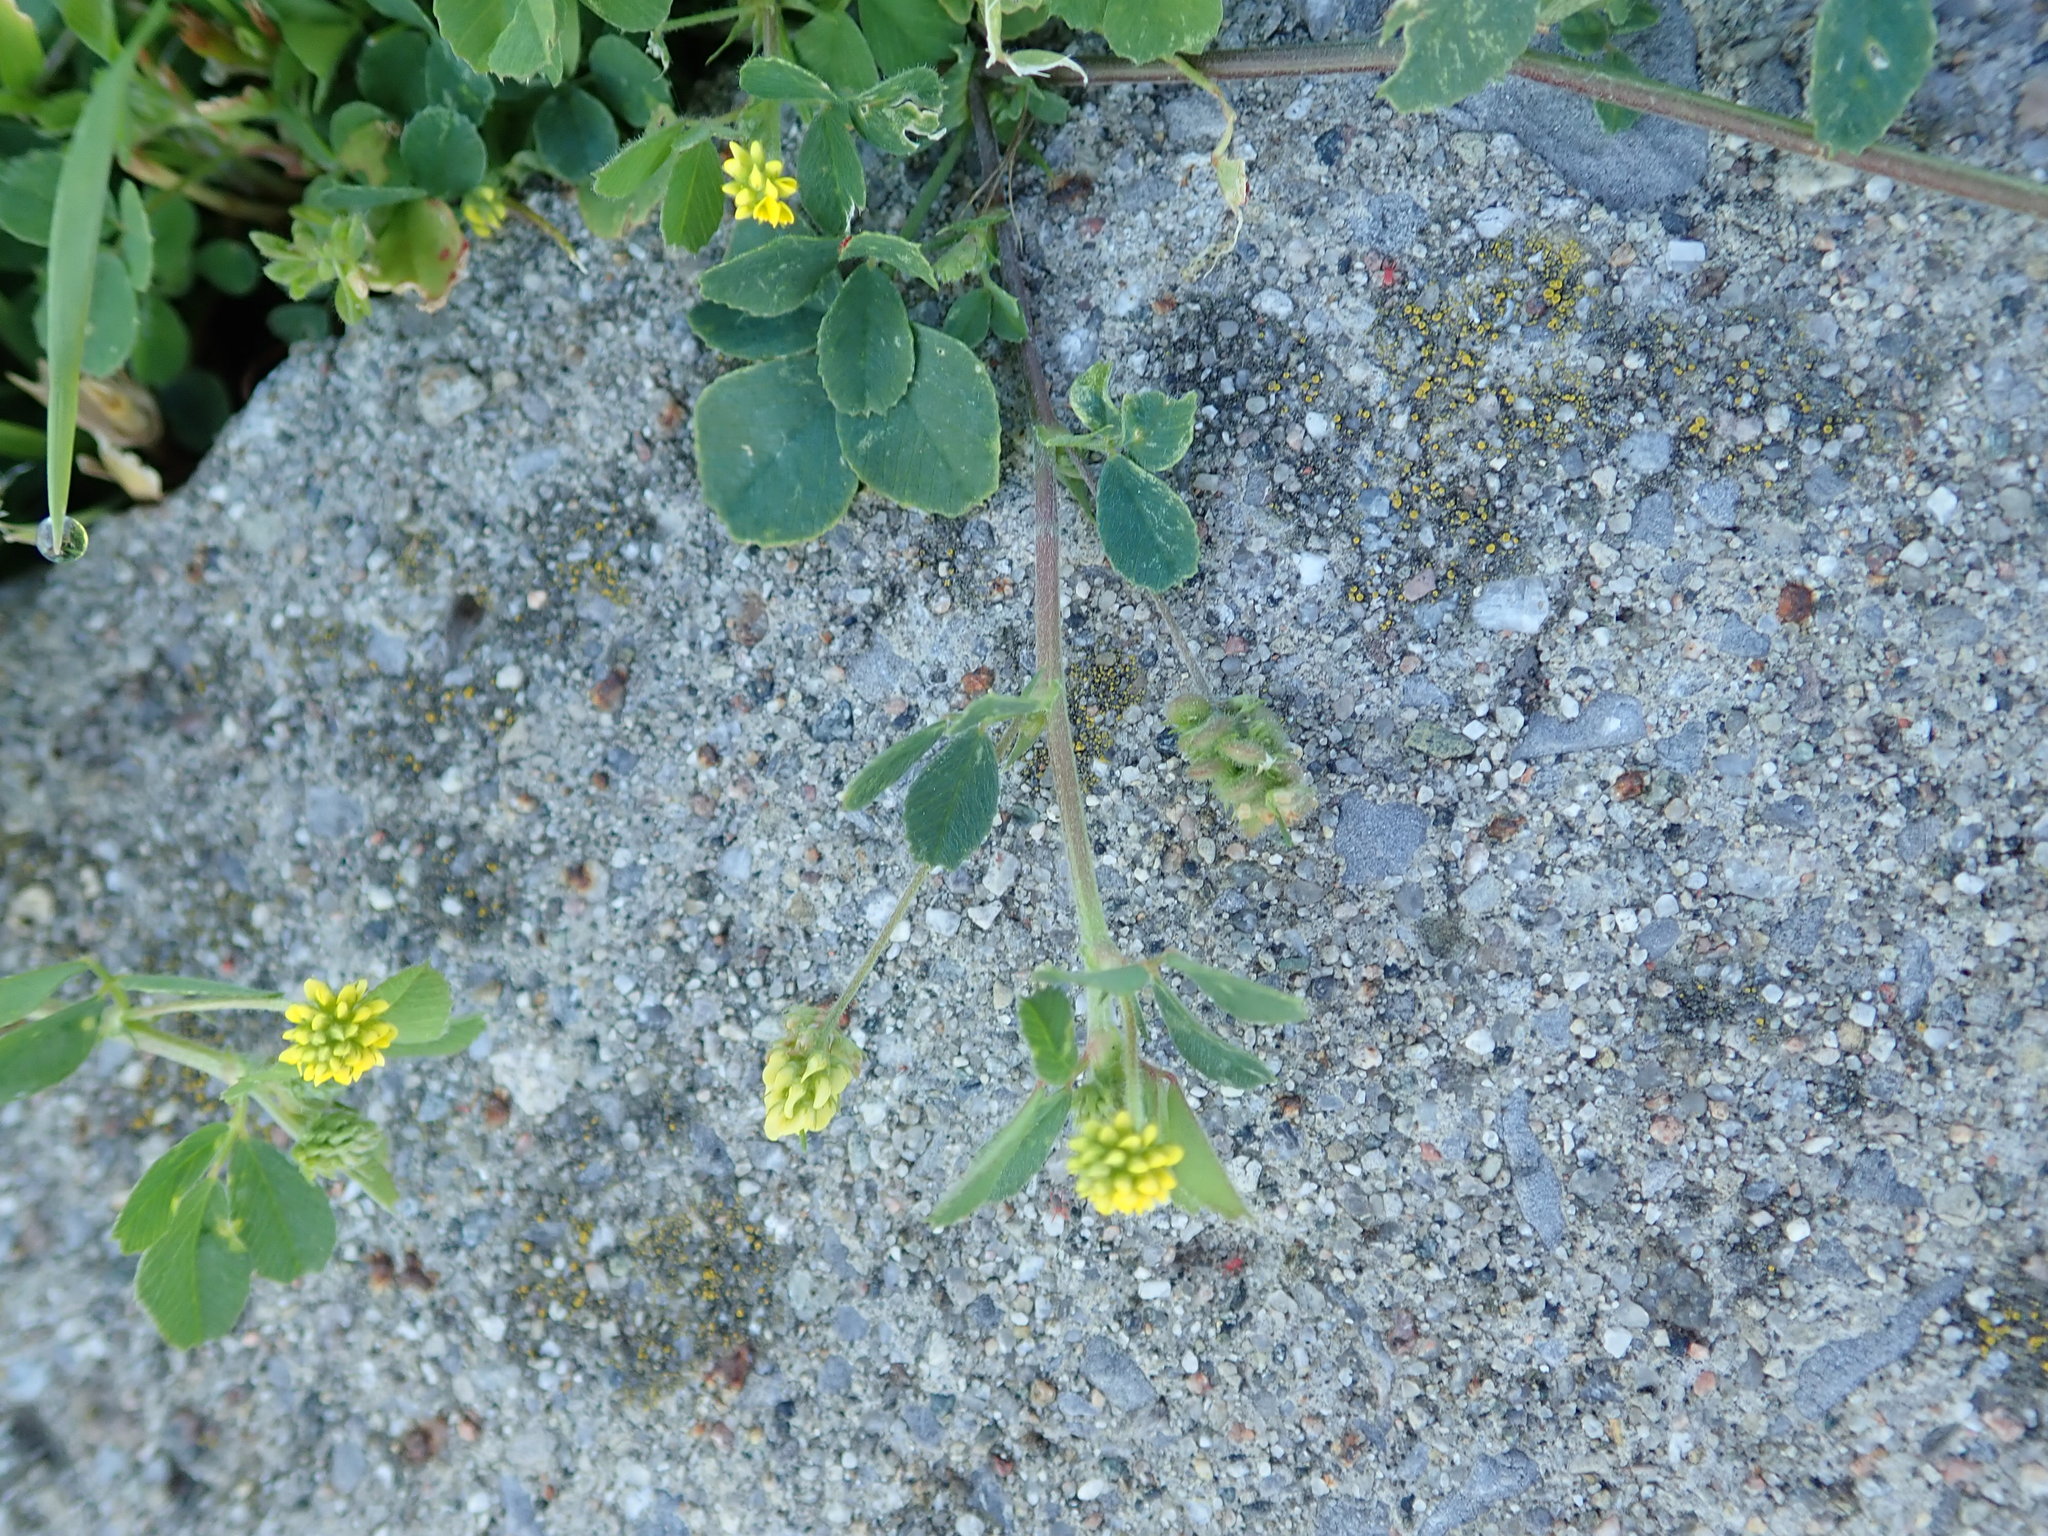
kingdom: Plantae
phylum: Tracheophyta
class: Magnoliopsida
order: Fabales
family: Fabaceae
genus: Medicago
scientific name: Medicago lupulina
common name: Black medick
